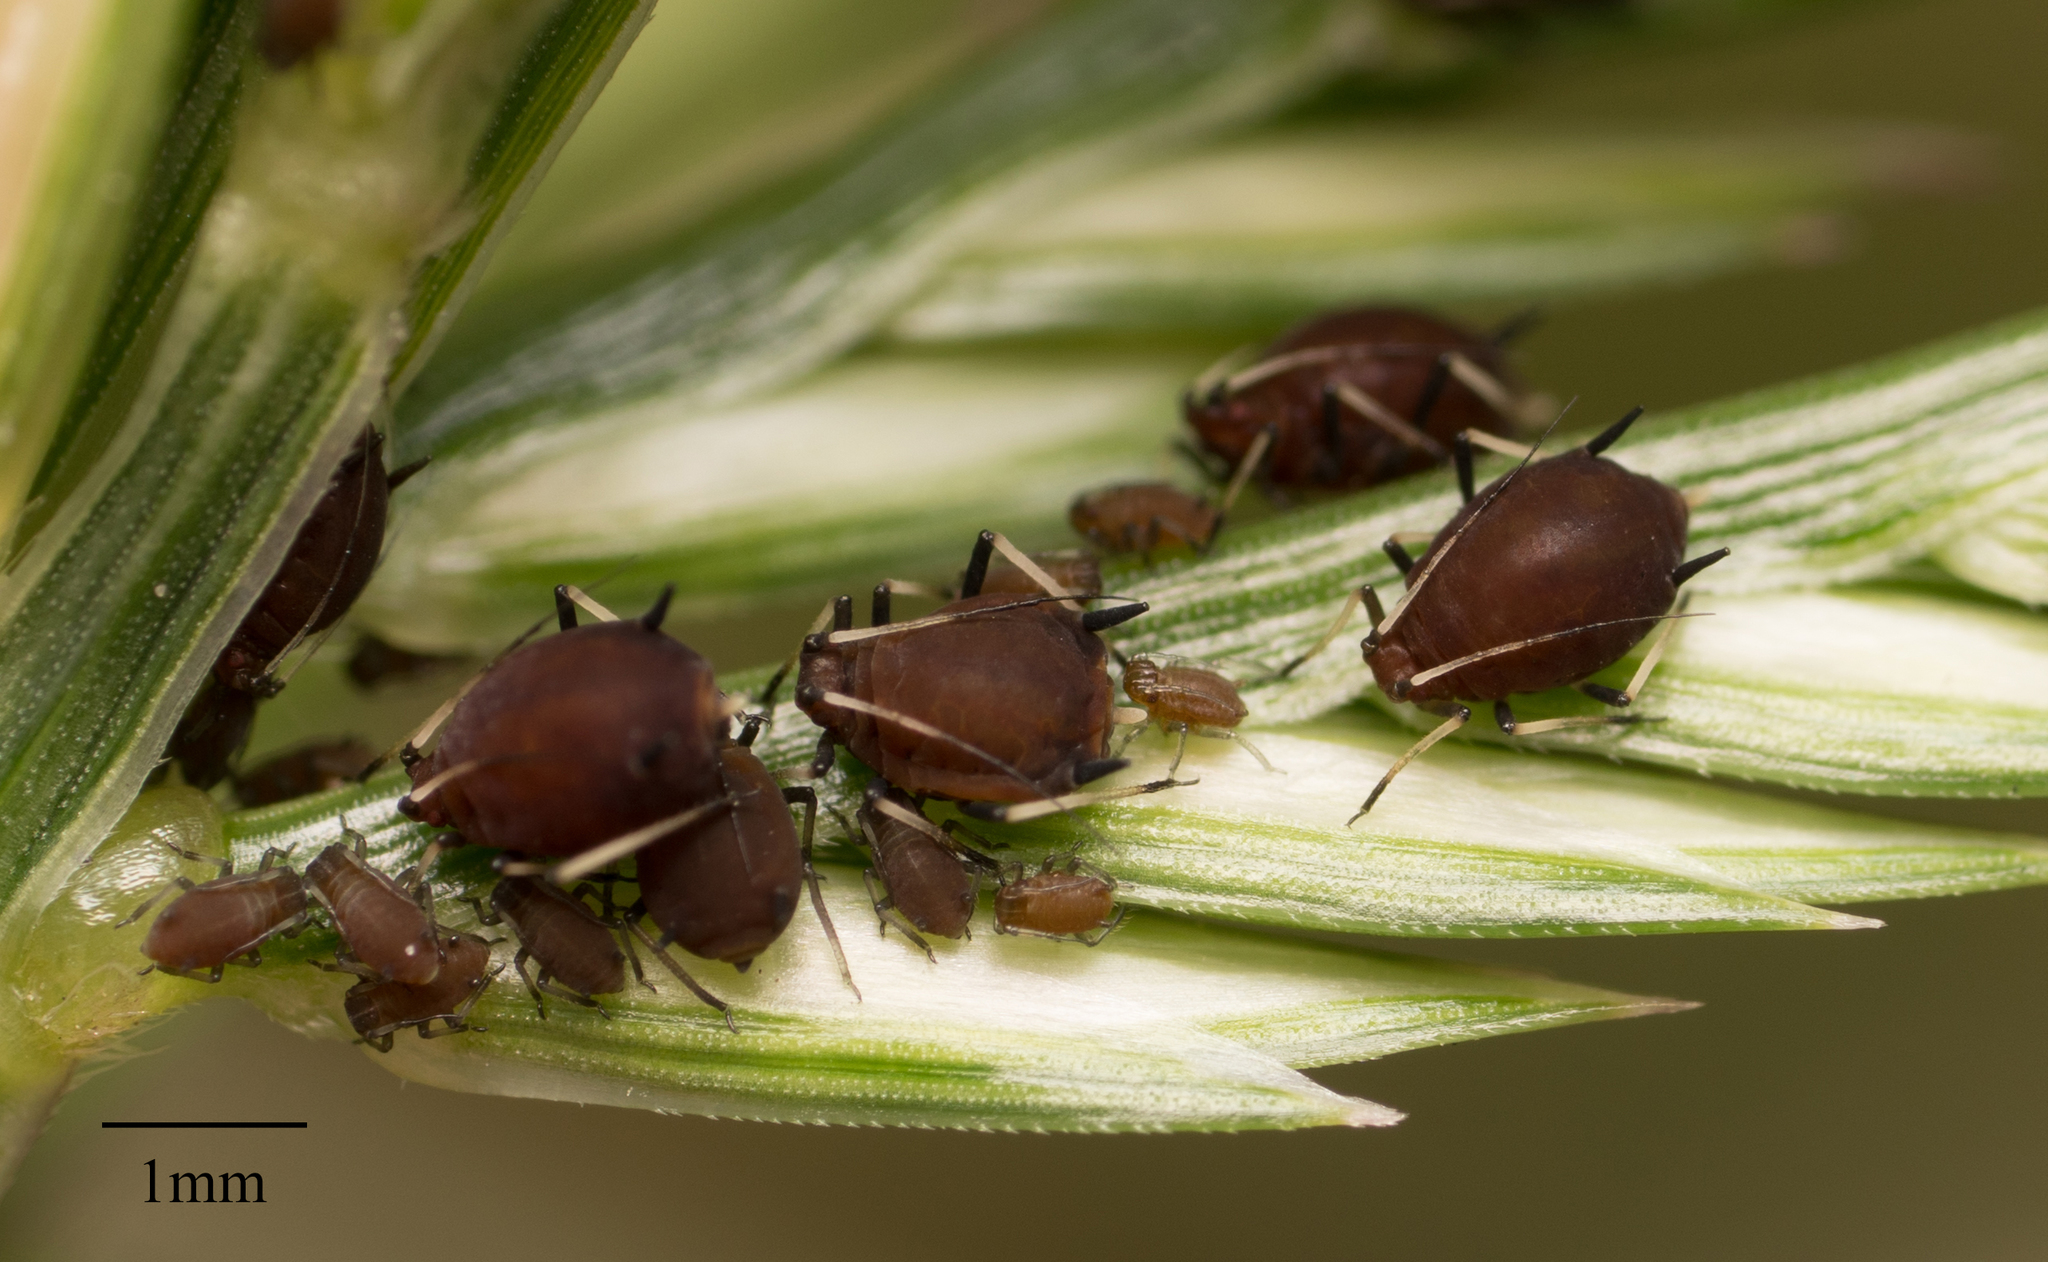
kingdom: Animalia
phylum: Arthropoda
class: Insecta
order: Hemiptera
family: Aphididae
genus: Hysteroneura
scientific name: Hysteroneura setariae
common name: Rusty plum aphid
